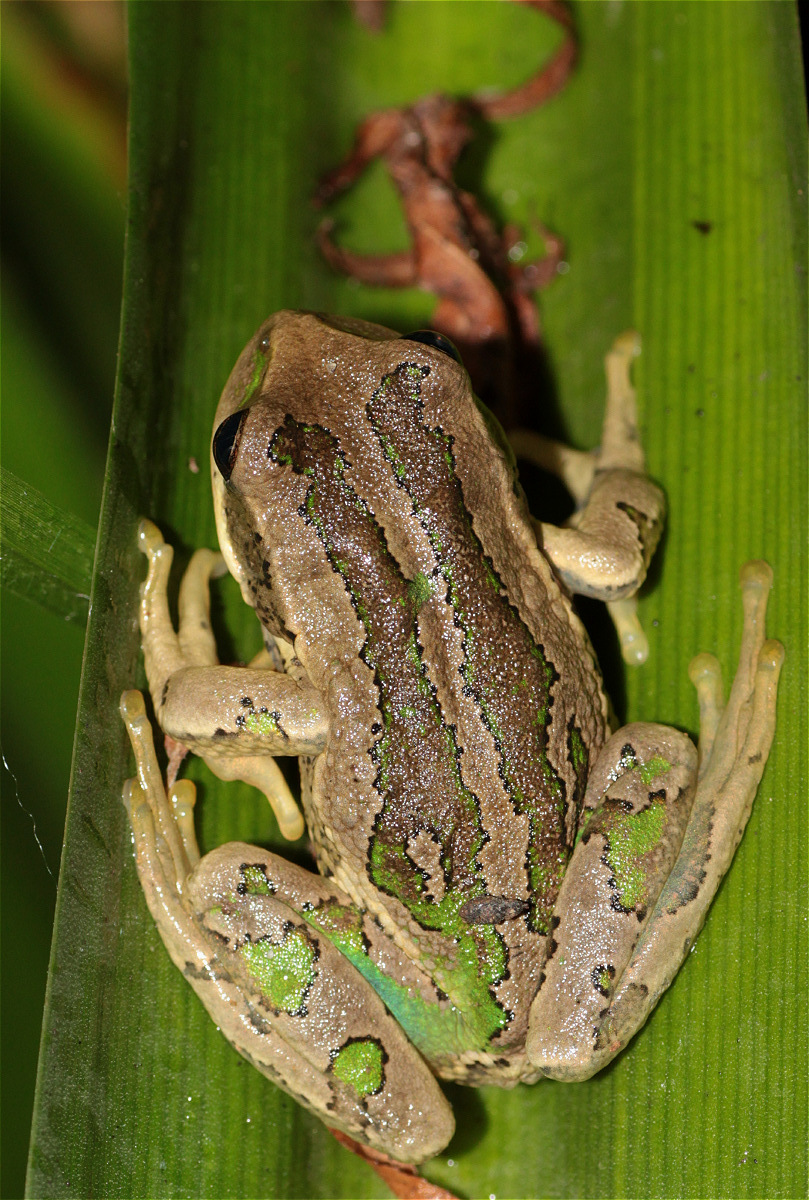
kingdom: Animalia
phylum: Chordata
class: Amphibia
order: Anura
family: Hemiphractidae
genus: Gastrotheca
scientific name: Gastrotheca cuencana
